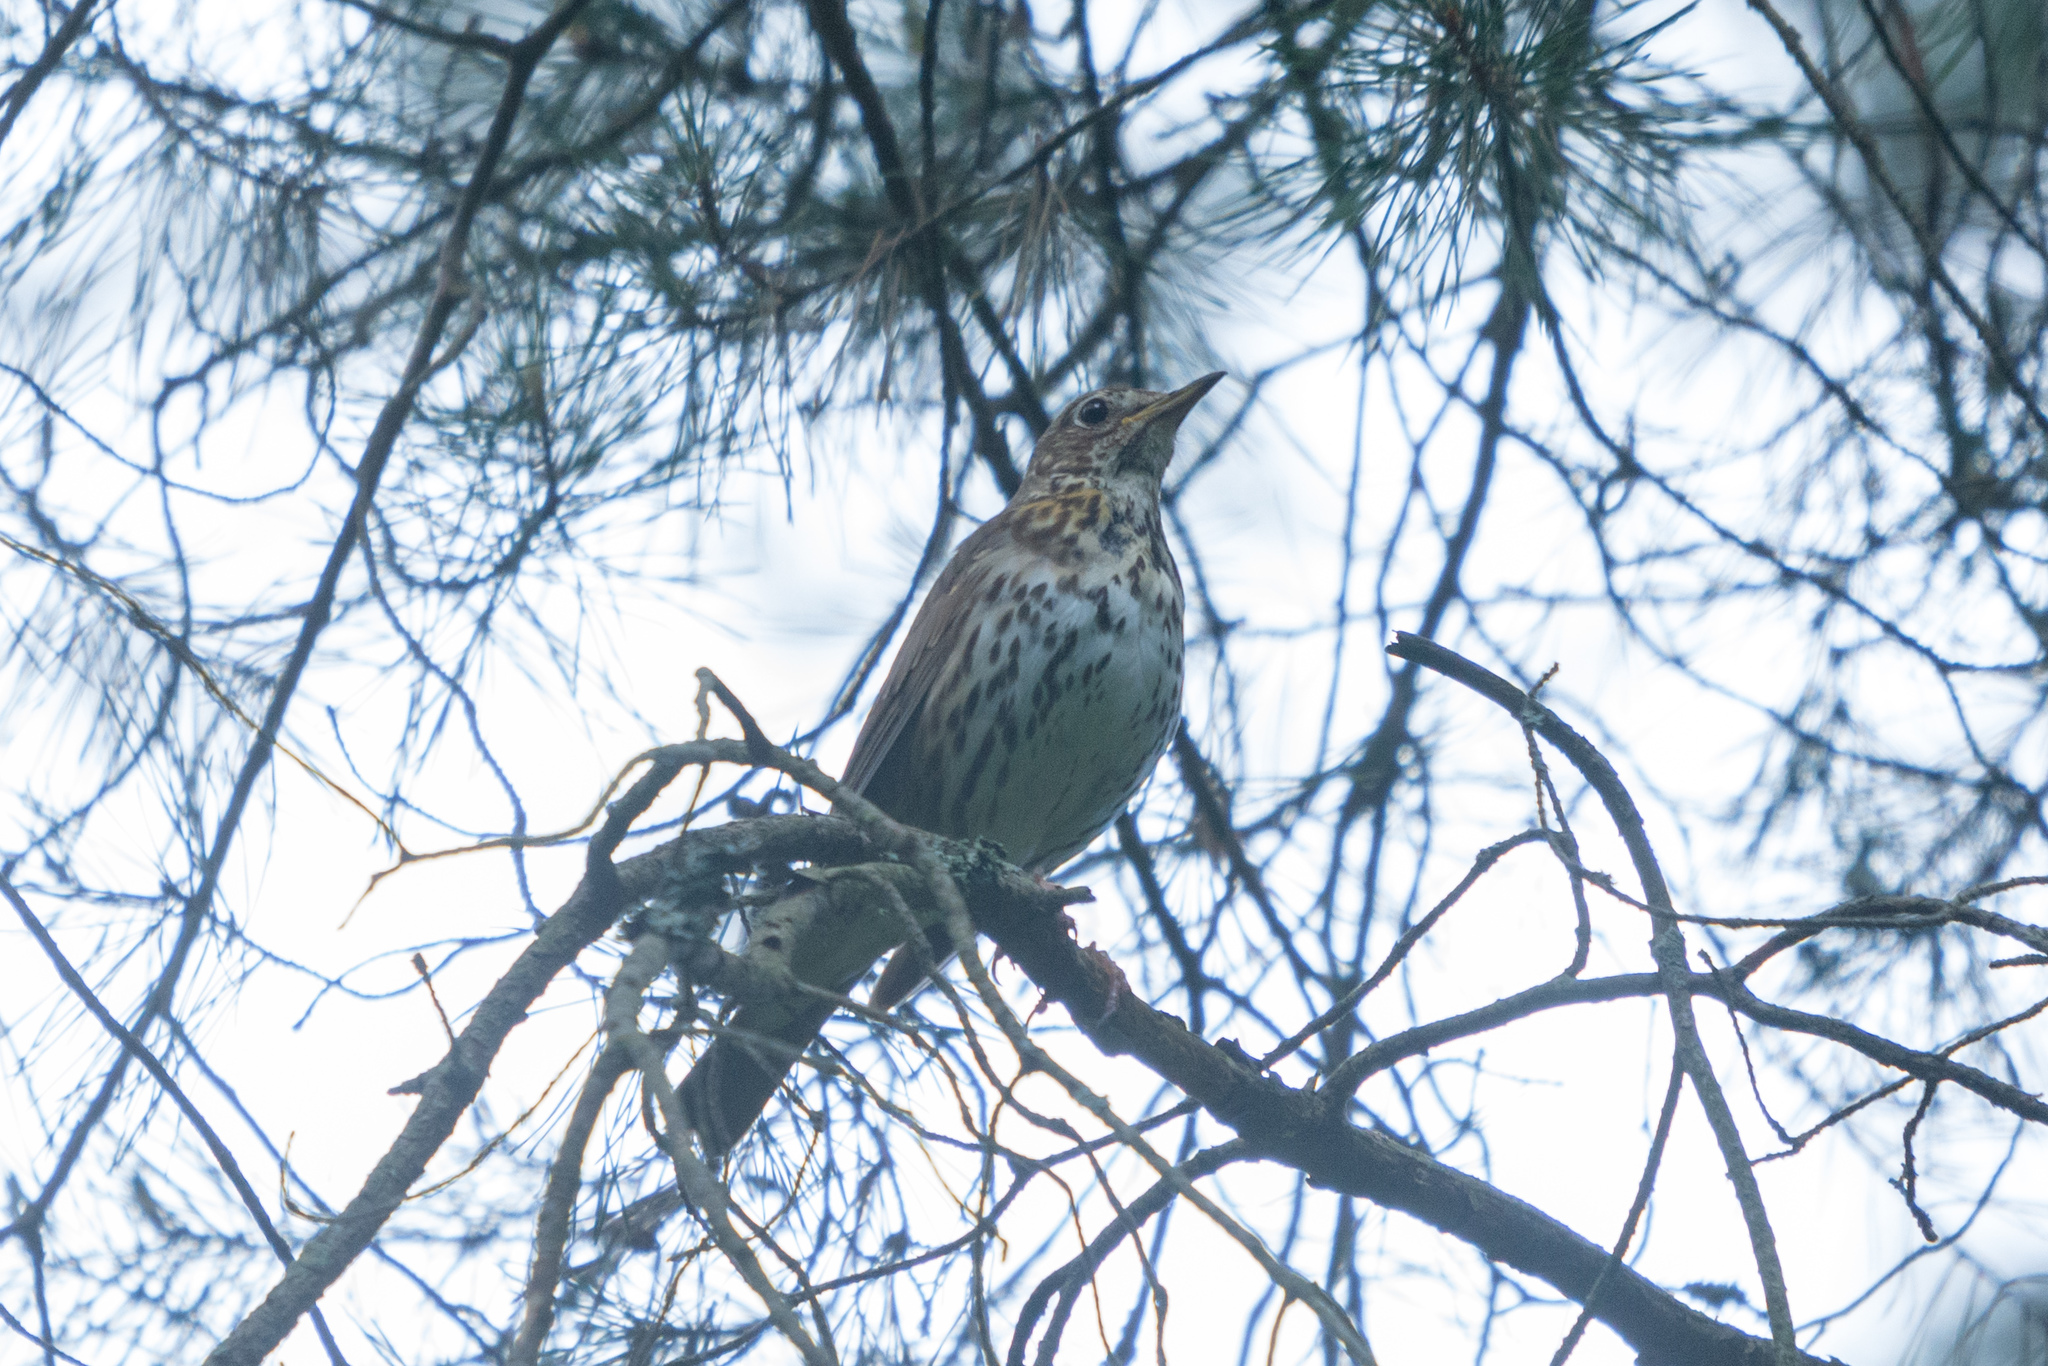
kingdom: Animalia
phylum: Chordata
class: Aves
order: Passeriformes
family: Turdidae
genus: Turdus
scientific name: Turdus philomelos
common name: Song thrush
